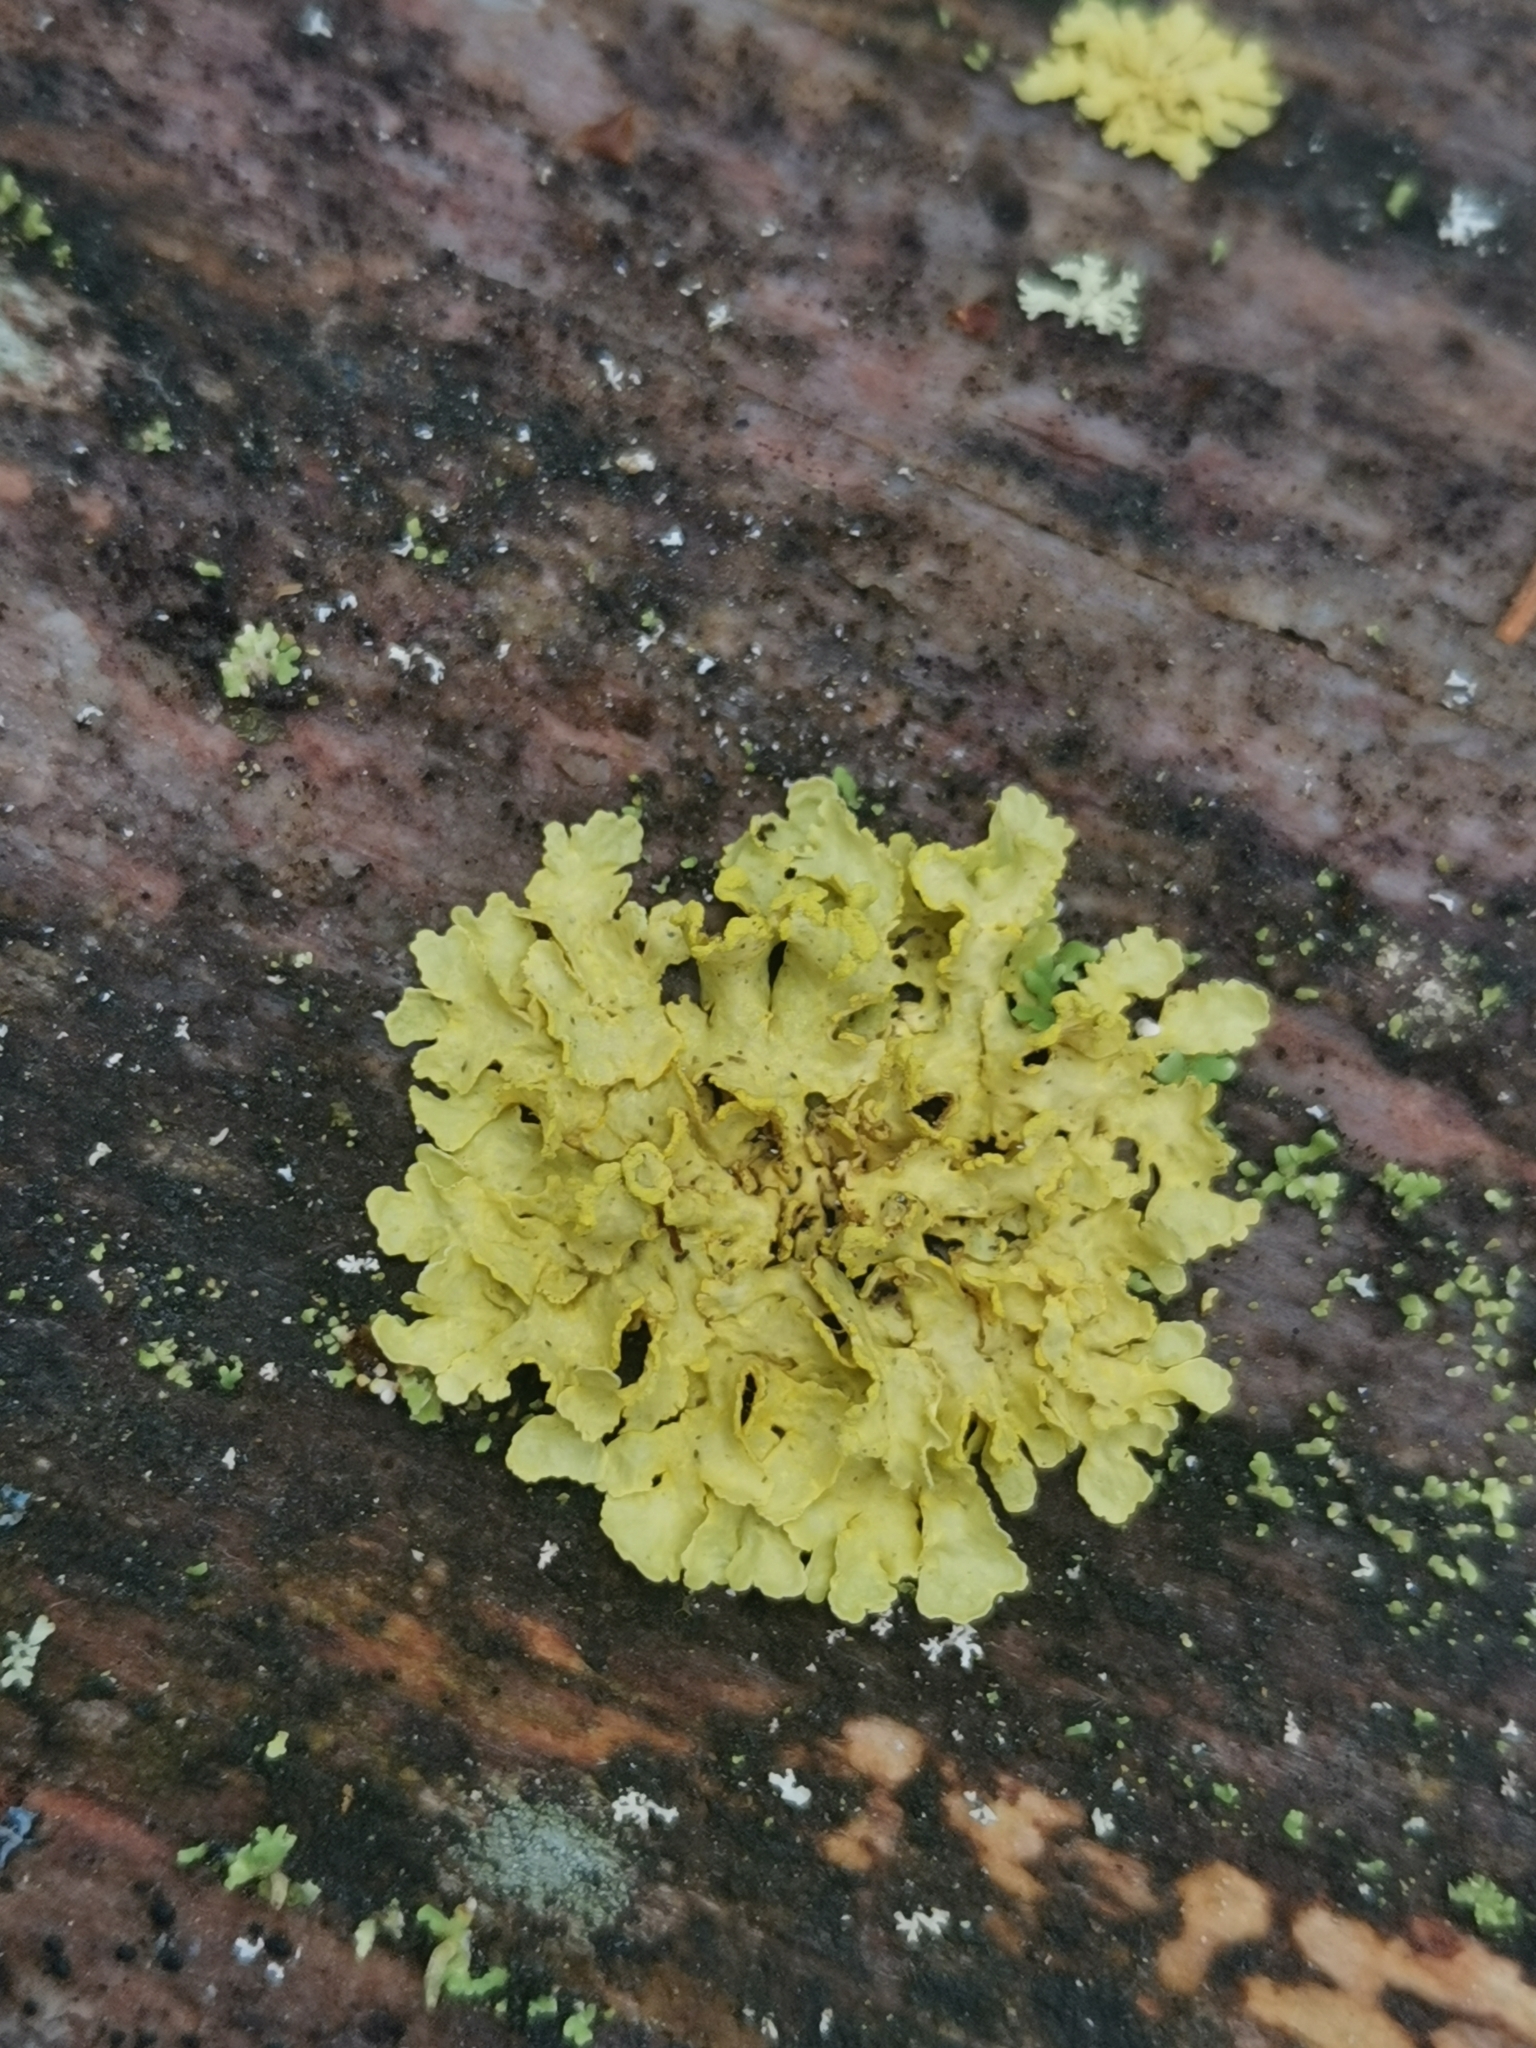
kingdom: Fungi
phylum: Ascomycota
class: Lecanoromycetes
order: Lecanorales
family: Parmeliaceae
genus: Vulpicida
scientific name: Vulpicida pinastri
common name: Powdered sunshine lichen
